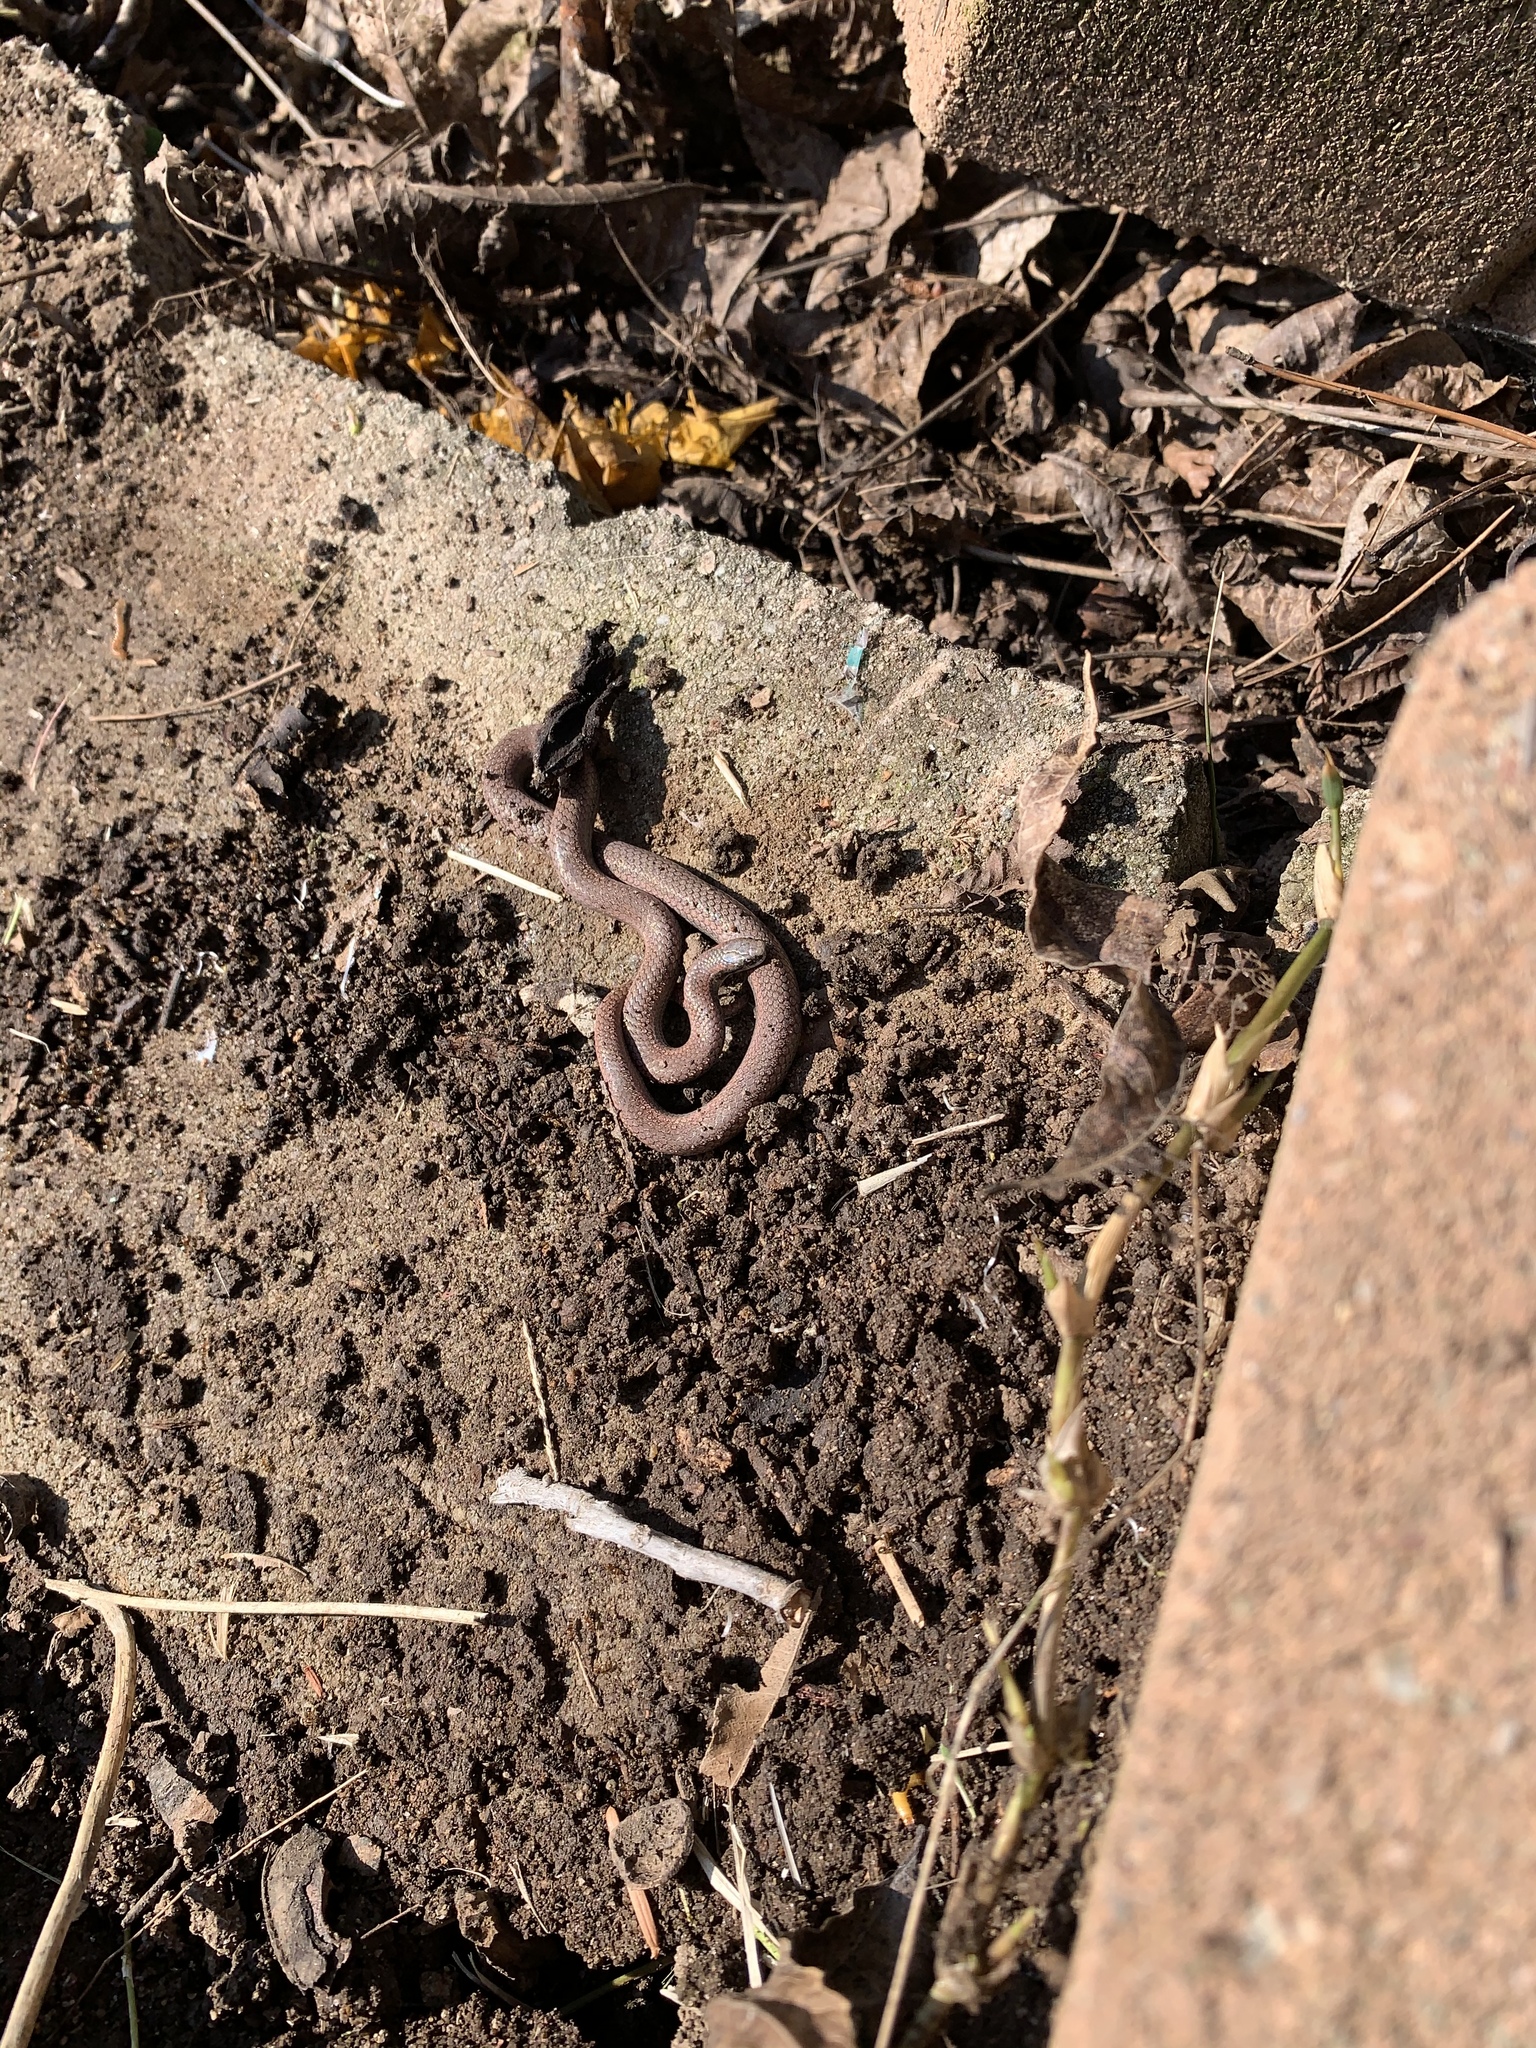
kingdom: Animalia
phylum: Chordata
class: Squamata
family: Colubridae
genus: Contia
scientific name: Contia tenuis
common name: Sharptail snake
